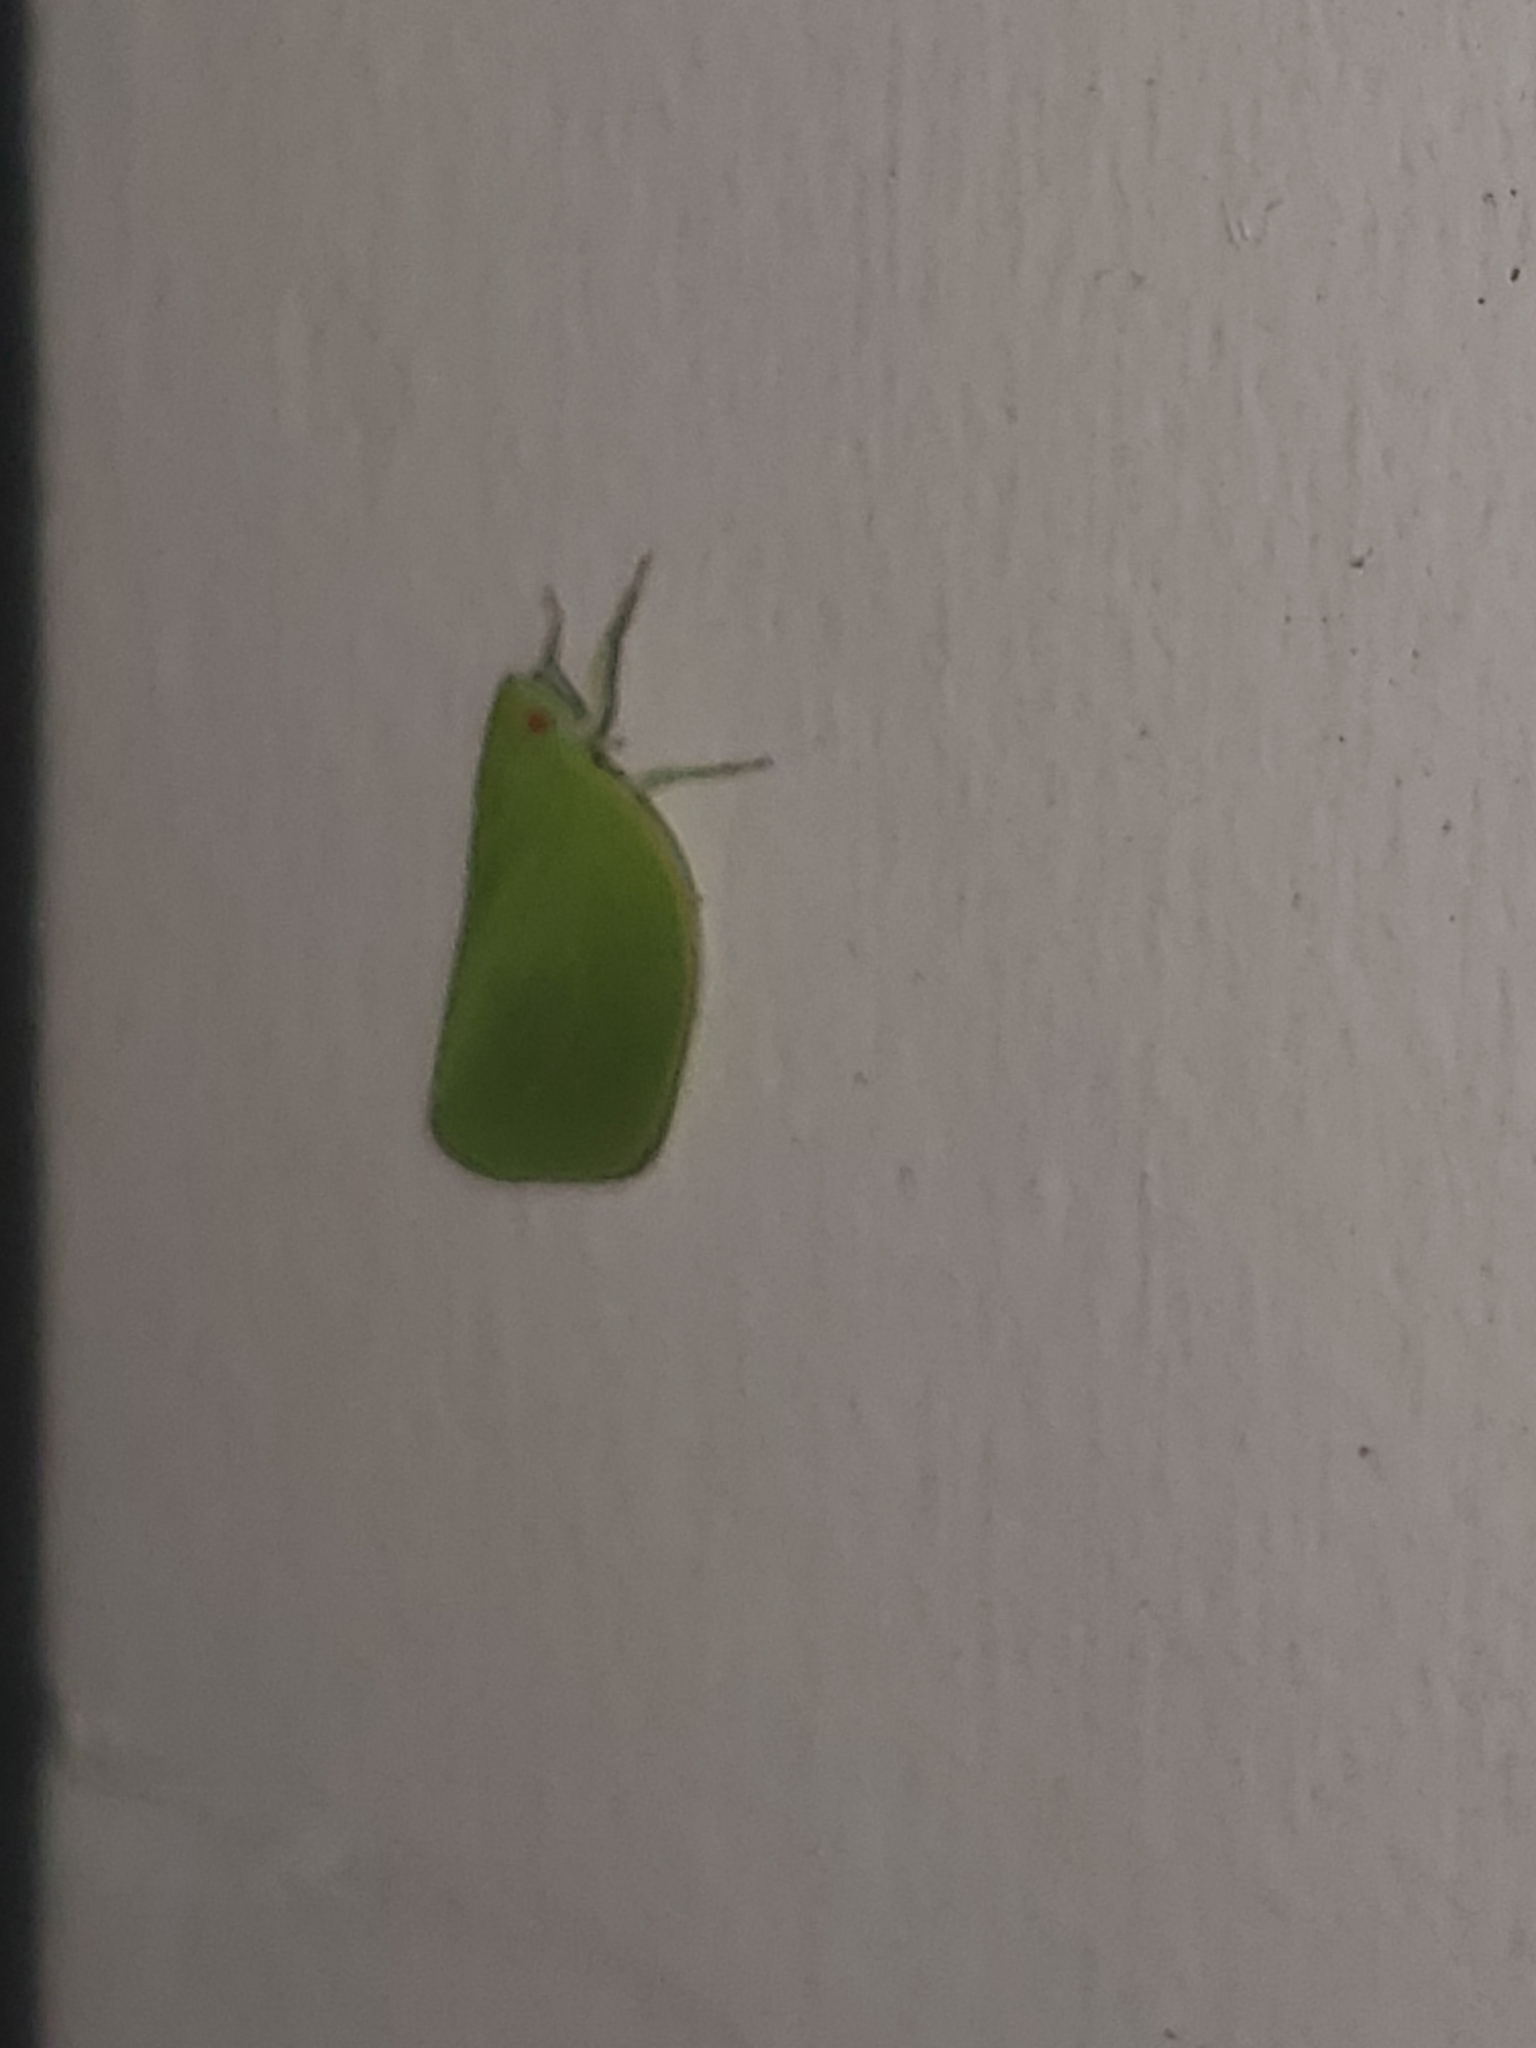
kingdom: Animalia
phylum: Arthropoda
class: Insecta
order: Hemiptera
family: Acanaloniidae
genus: Acanalonia
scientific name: Acanalonia conica
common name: Green cone-headed planthopper
